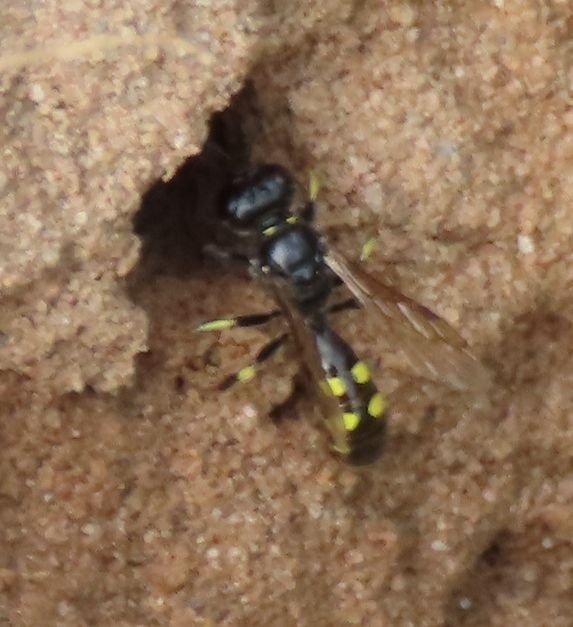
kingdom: Animalia
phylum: Arthropoda
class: Insecta
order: Hymenoptera
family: Crabronidae
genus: Crossocerus
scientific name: Crossocerus quadrimaculatus
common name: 4-spotted digger wasp
